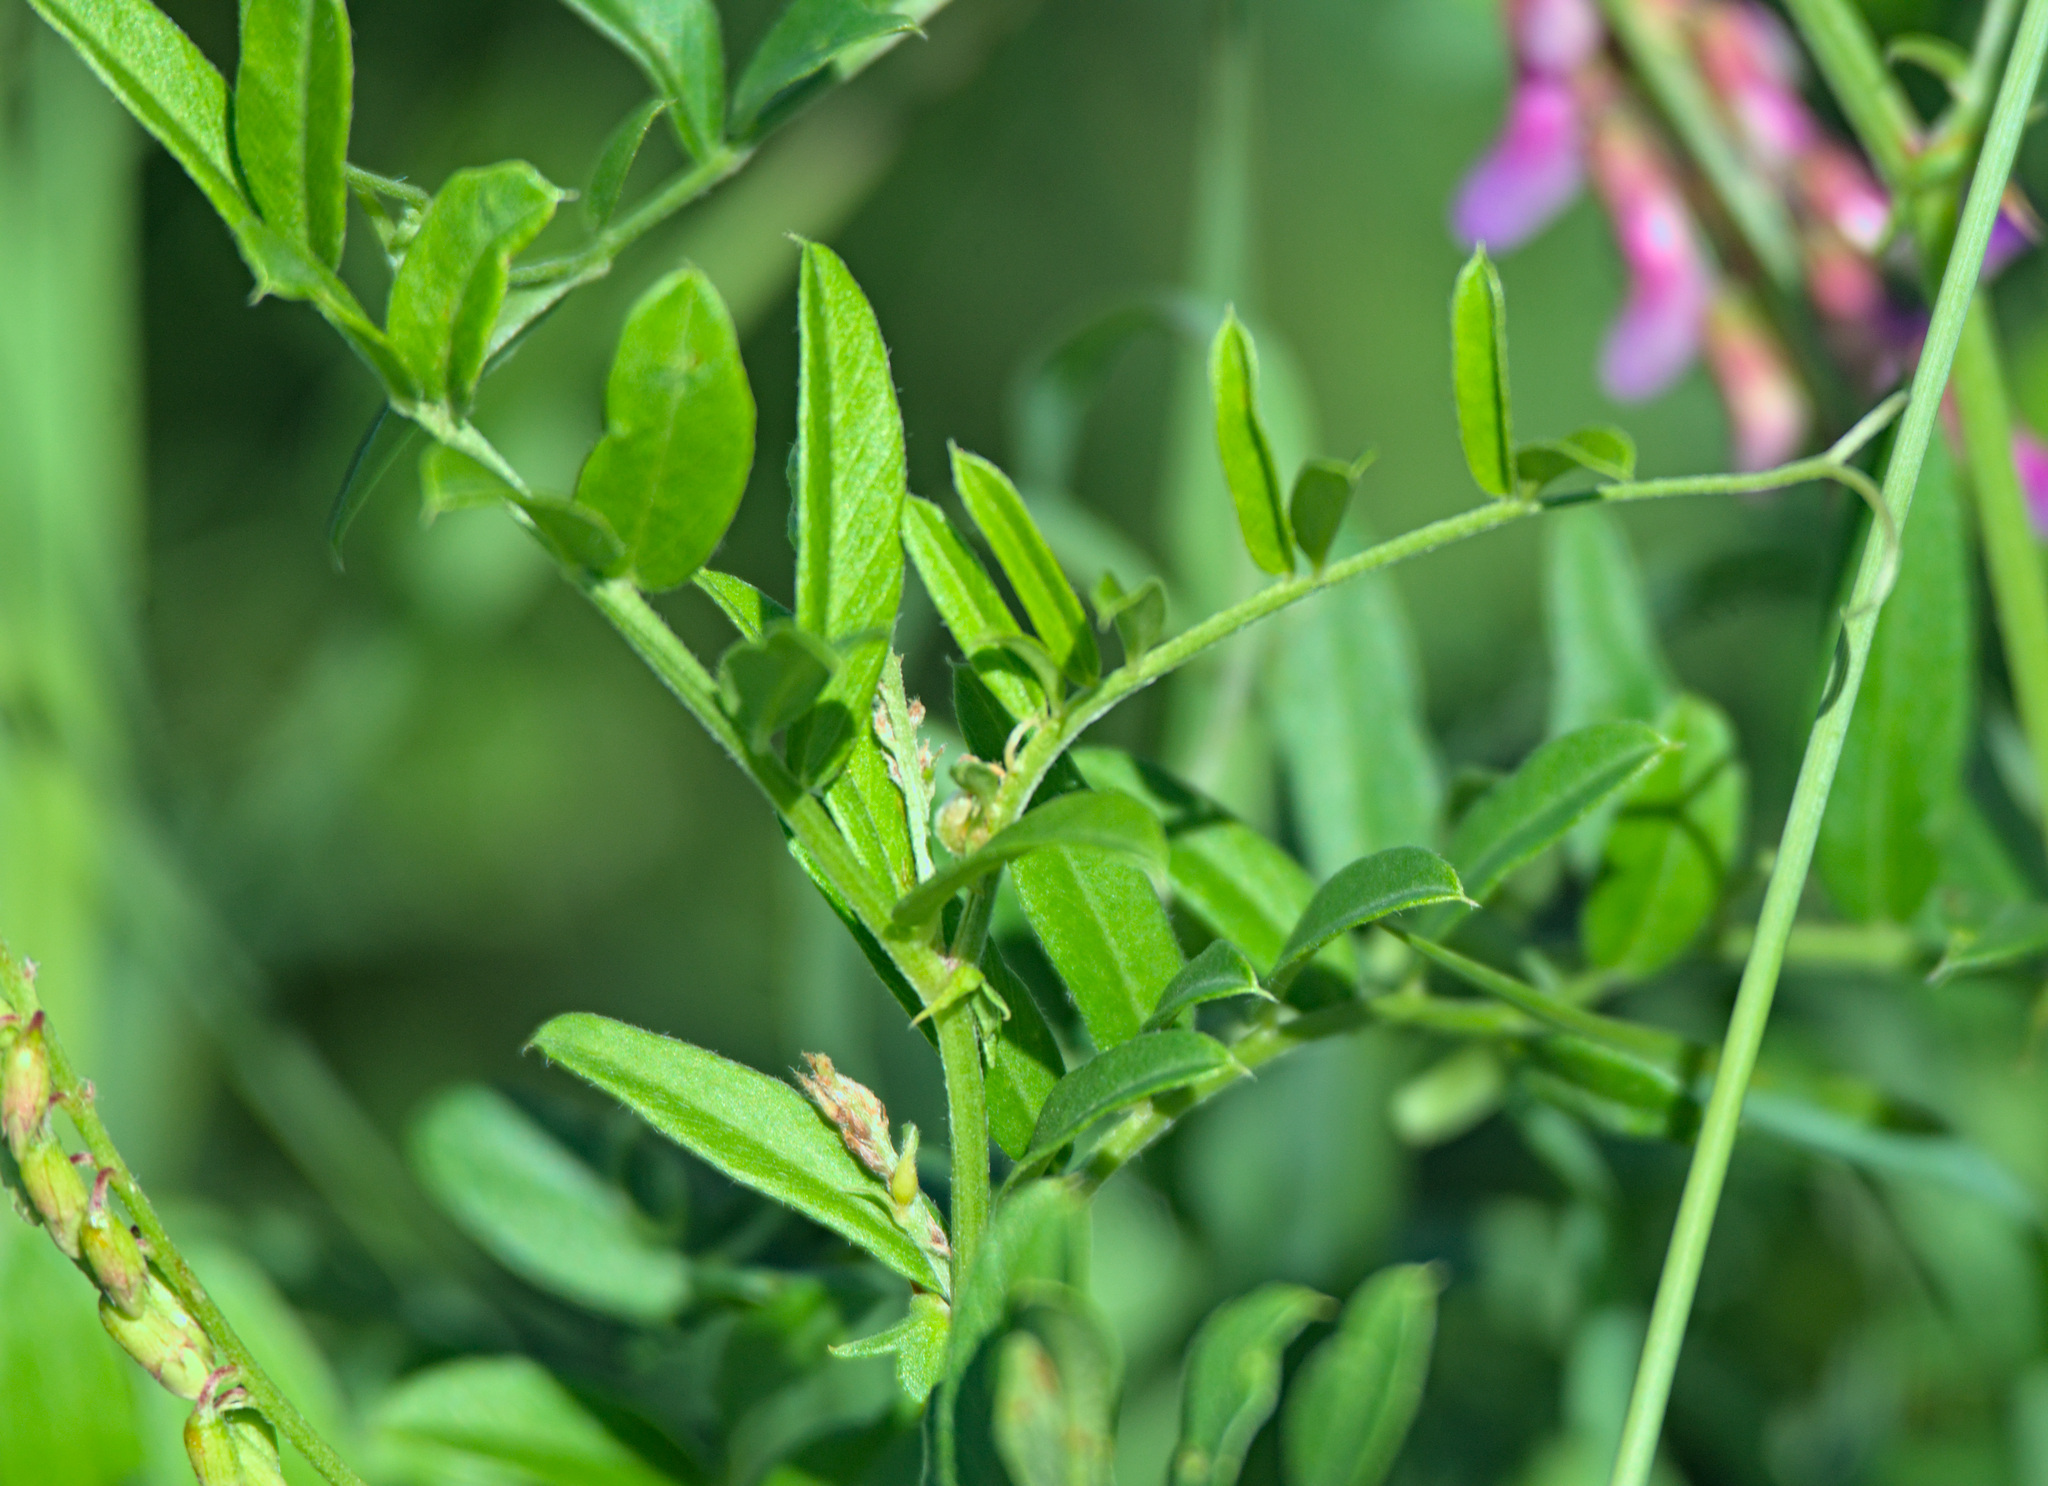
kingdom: Plantae
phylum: Tracheophyta
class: Magnoliopsida
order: Fabales
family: Fabaceae
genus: Vicia
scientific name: Vicia amoena
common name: Cheder ebs
